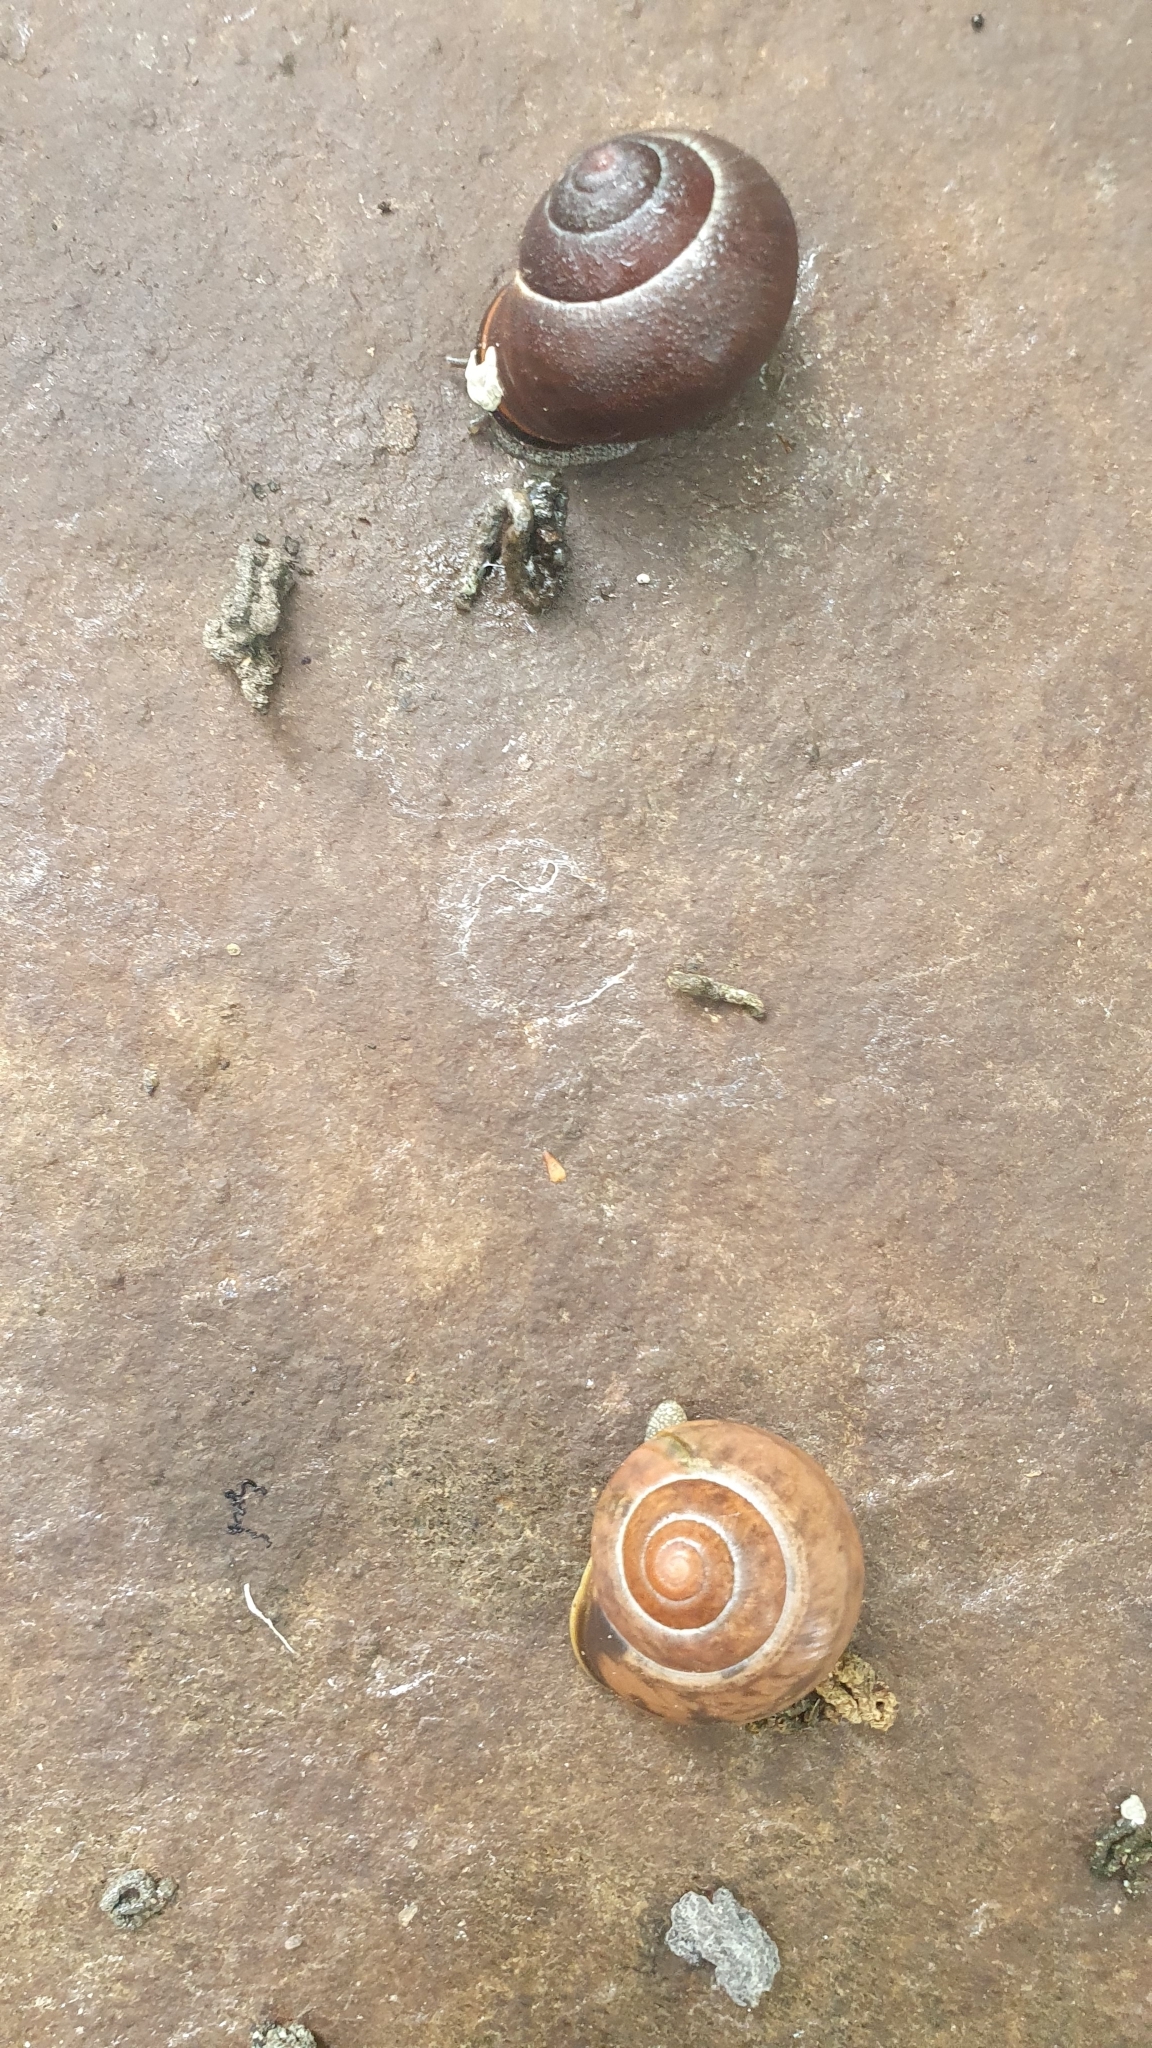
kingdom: Animalia
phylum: Mollusca
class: Gastropoda
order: Stylommatophora
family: Helicidae
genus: Cepaea
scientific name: Cepaea nemoralis
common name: Grovesnail
